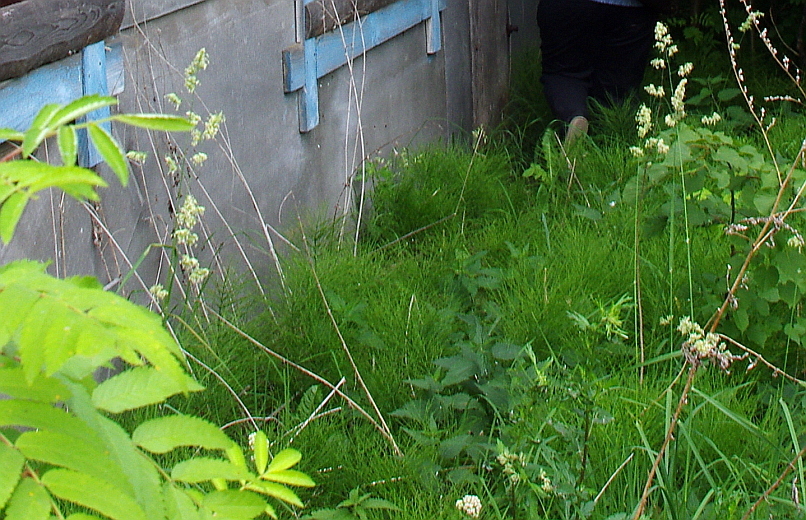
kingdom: Plantae
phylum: Tracheophyta
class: Liliopsida
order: Poales
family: Poaceae
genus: Dactylis
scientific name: Dactylis glomerata
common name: Orchardgrass
